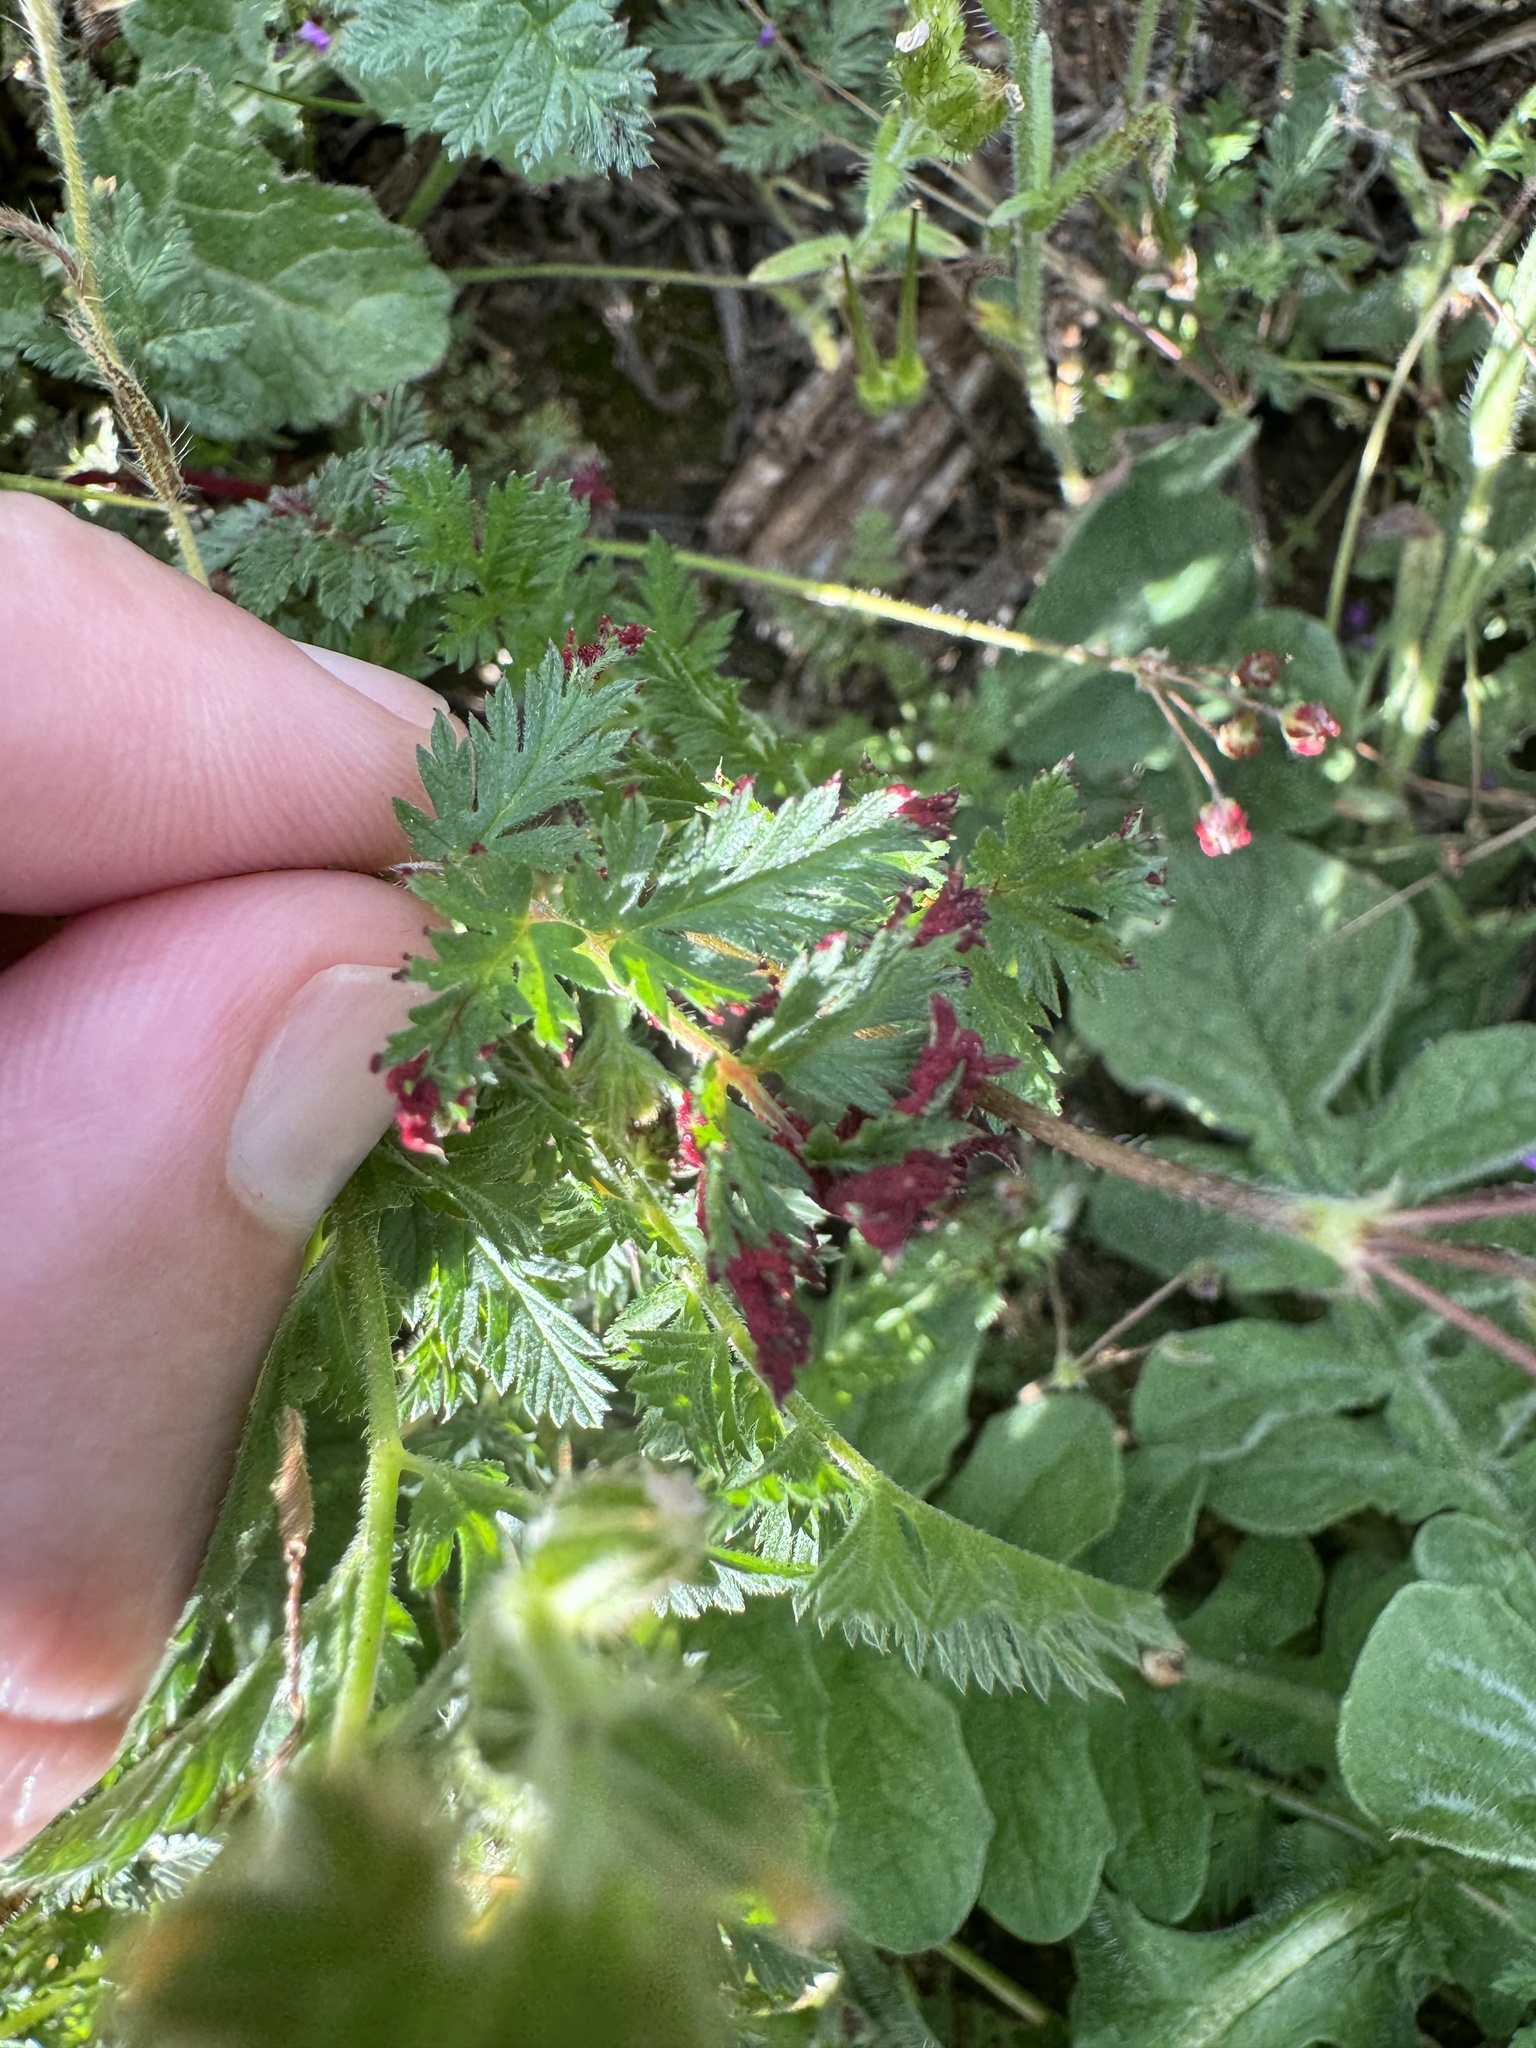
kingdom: Fungi
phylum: Chytridiomycota
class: Chytridiomycetes
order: Chytridiales
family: Synchytriaceae
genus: Synchytrium
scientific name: Synchytrium papillatum
